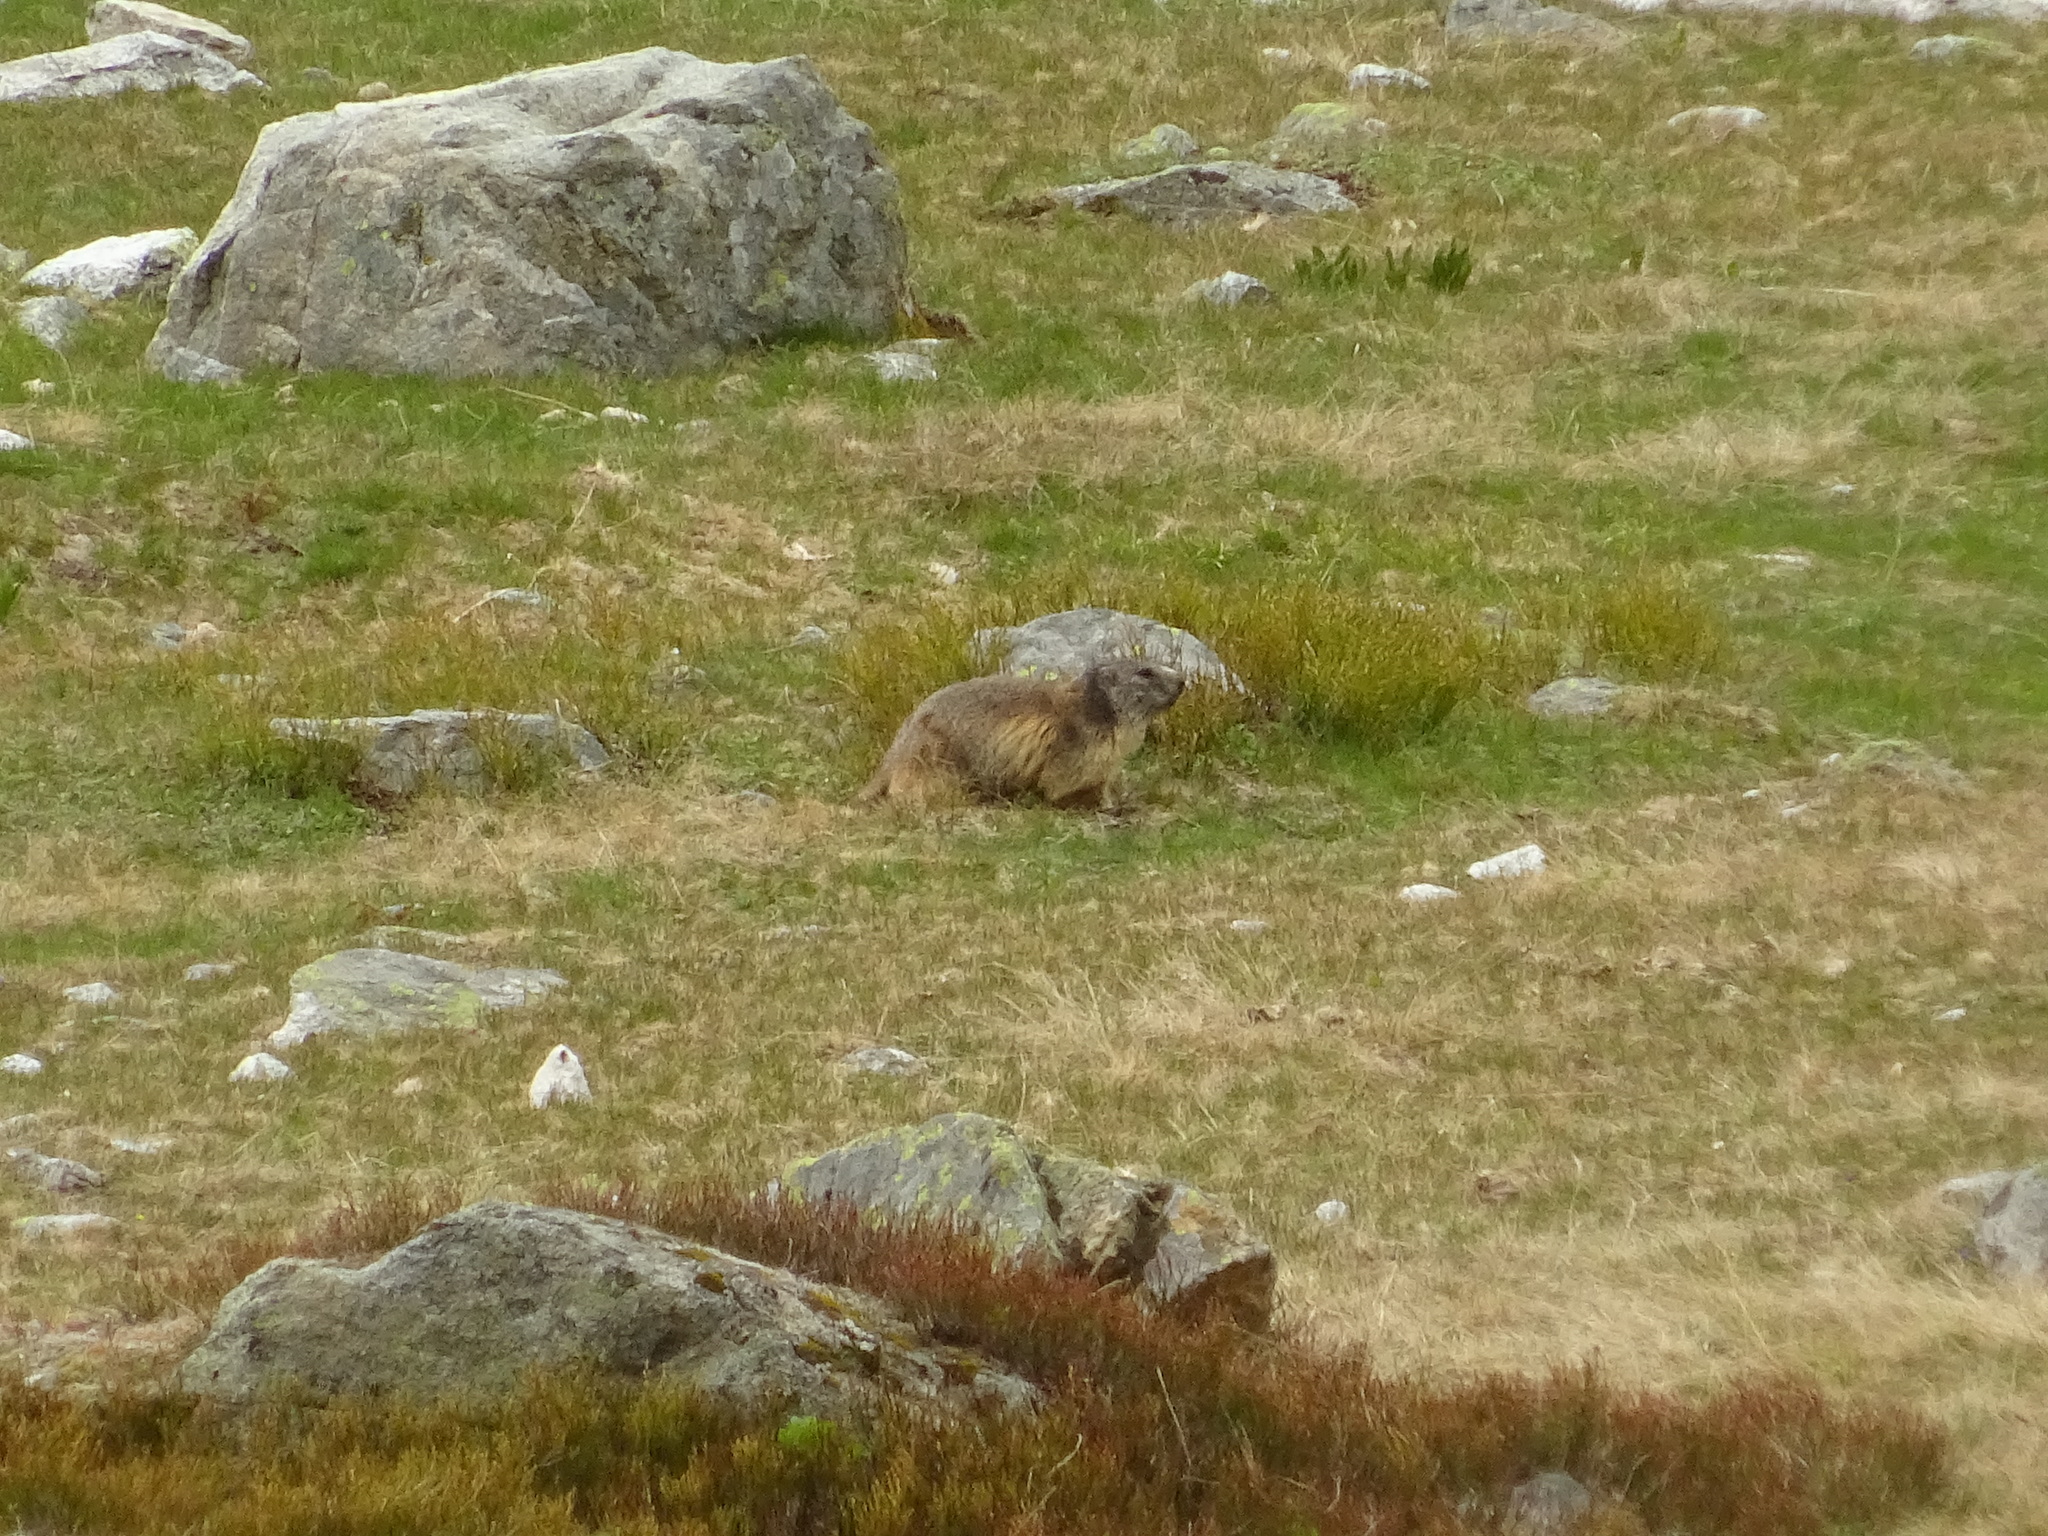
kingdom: Animalia
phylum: Chordata
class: Mammalia
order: Rodentia
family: Sciuridae
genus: Marmota
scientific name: Marmota marmota
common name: Alpine marmot
